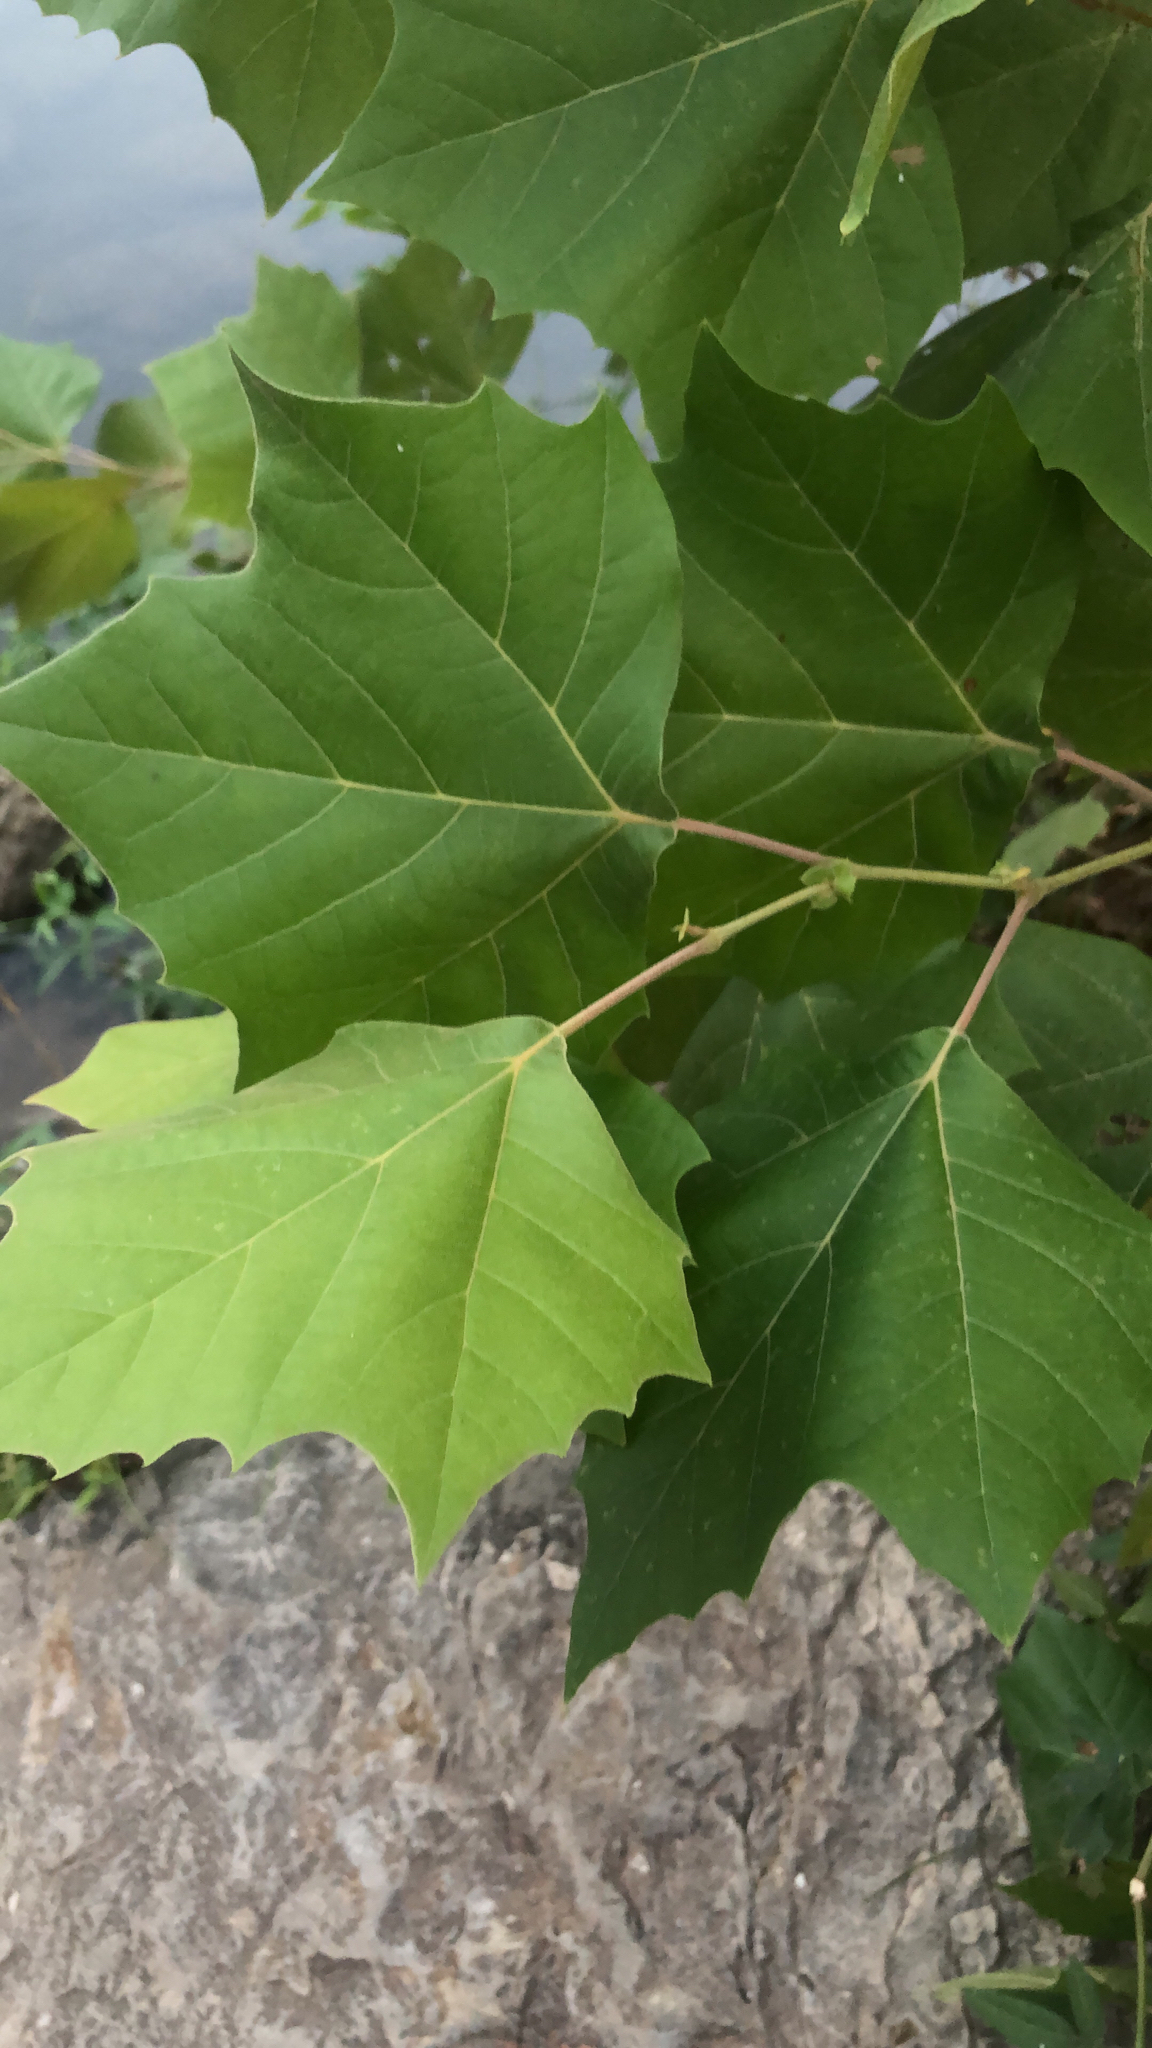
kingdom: Plantae
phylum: Tracheophyta
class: Magnoliopsida
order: Proteales
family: Platanaceae
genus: Platanus
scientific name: Platanus occidentalis
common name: American sycamore
